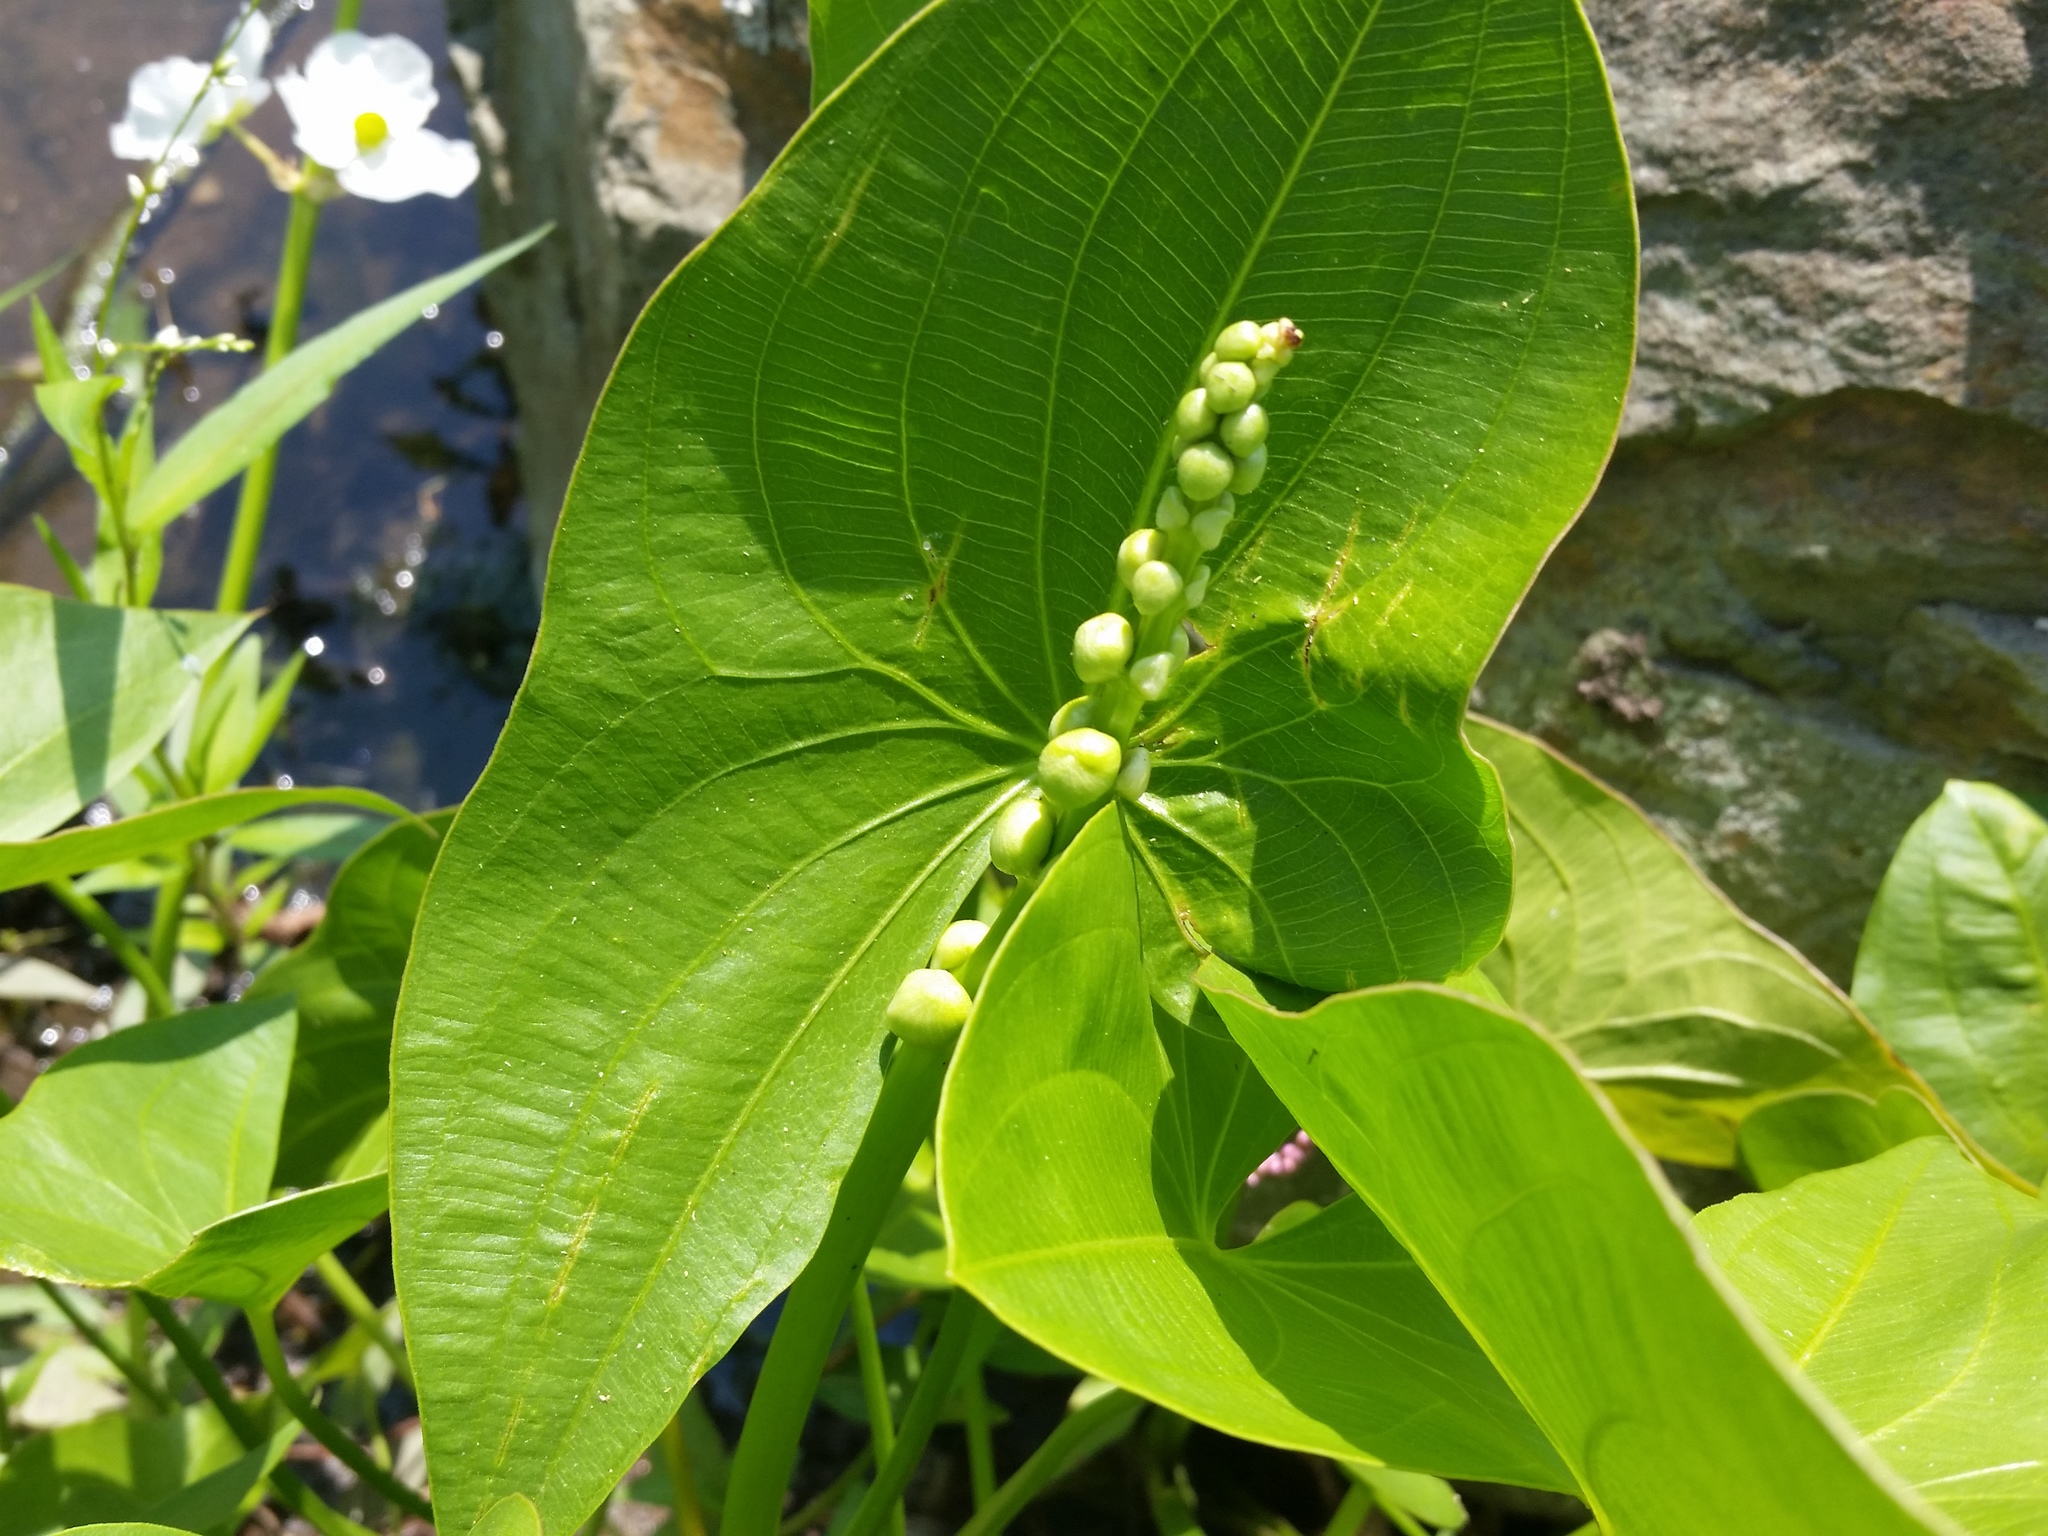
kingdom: Plantae
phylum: Tracheophyta
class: Liliopsida
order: Alismatales
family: Alismataceae
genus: Sagittaria
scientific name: Sagittaria latifolia
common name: Duck-potato
